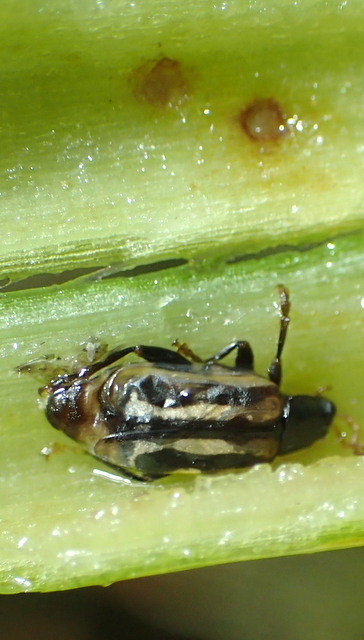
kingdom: Animalia
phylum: Arthropoda
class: Insecta
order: Coleoptera
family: Chrysomelidae
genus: Agasicles
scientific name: Agasicles hygrophila
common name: Alligatorweed flea beetle
